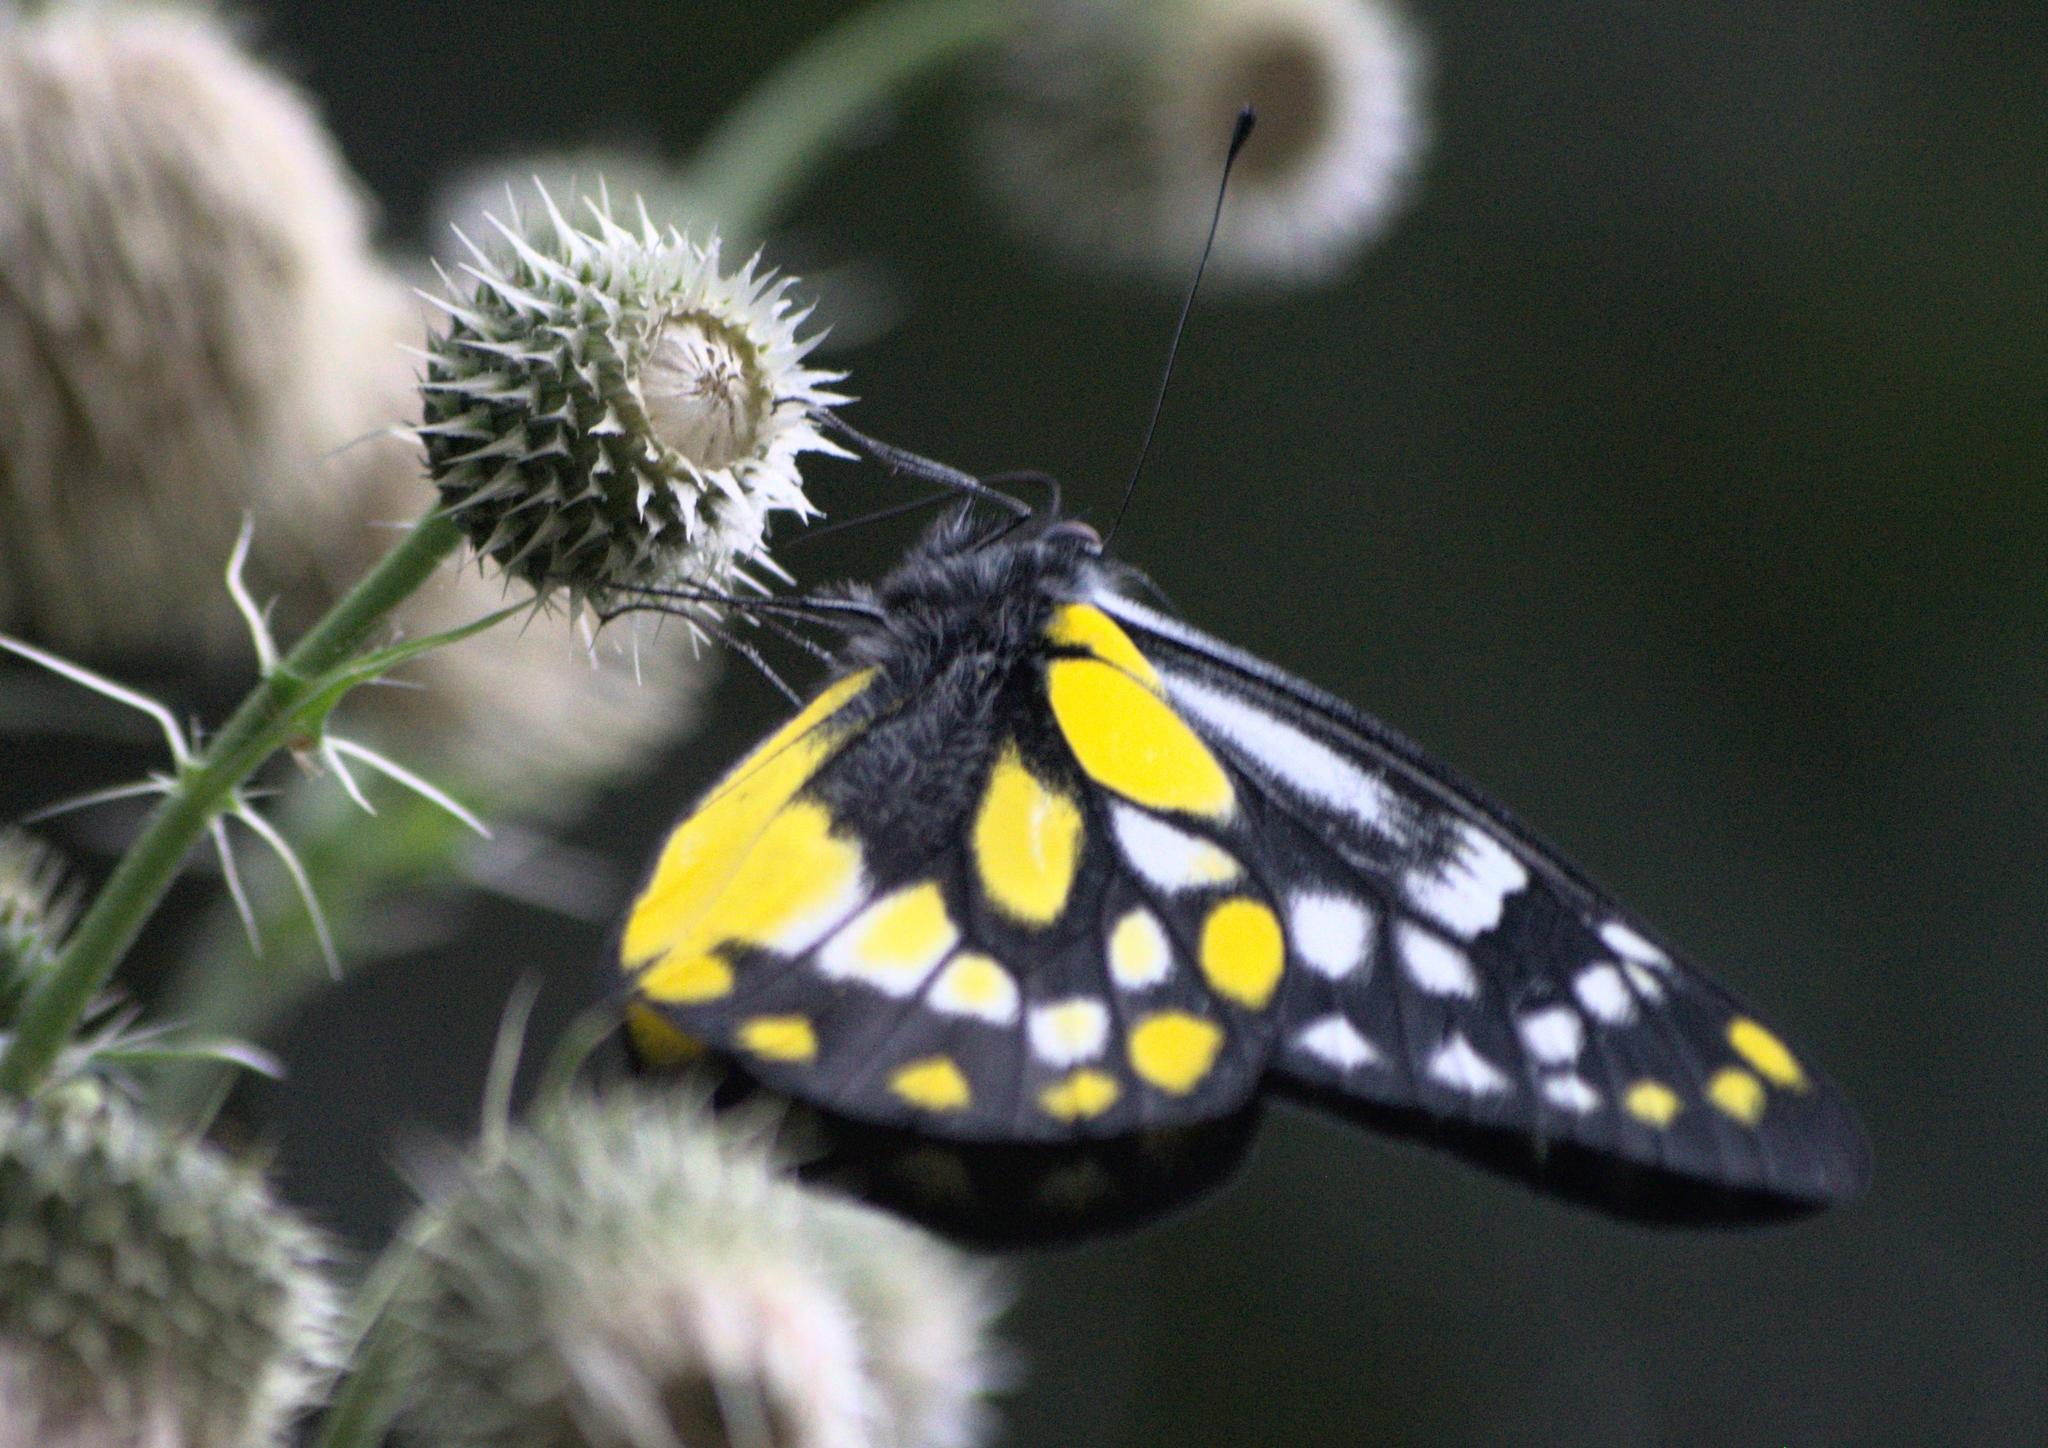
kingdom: Animalia
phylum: Arthropoda
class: Insecta
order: Lepidoptera
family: Pieridae
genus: Delias
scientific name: Delias belladonna
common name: Hill jezebel
